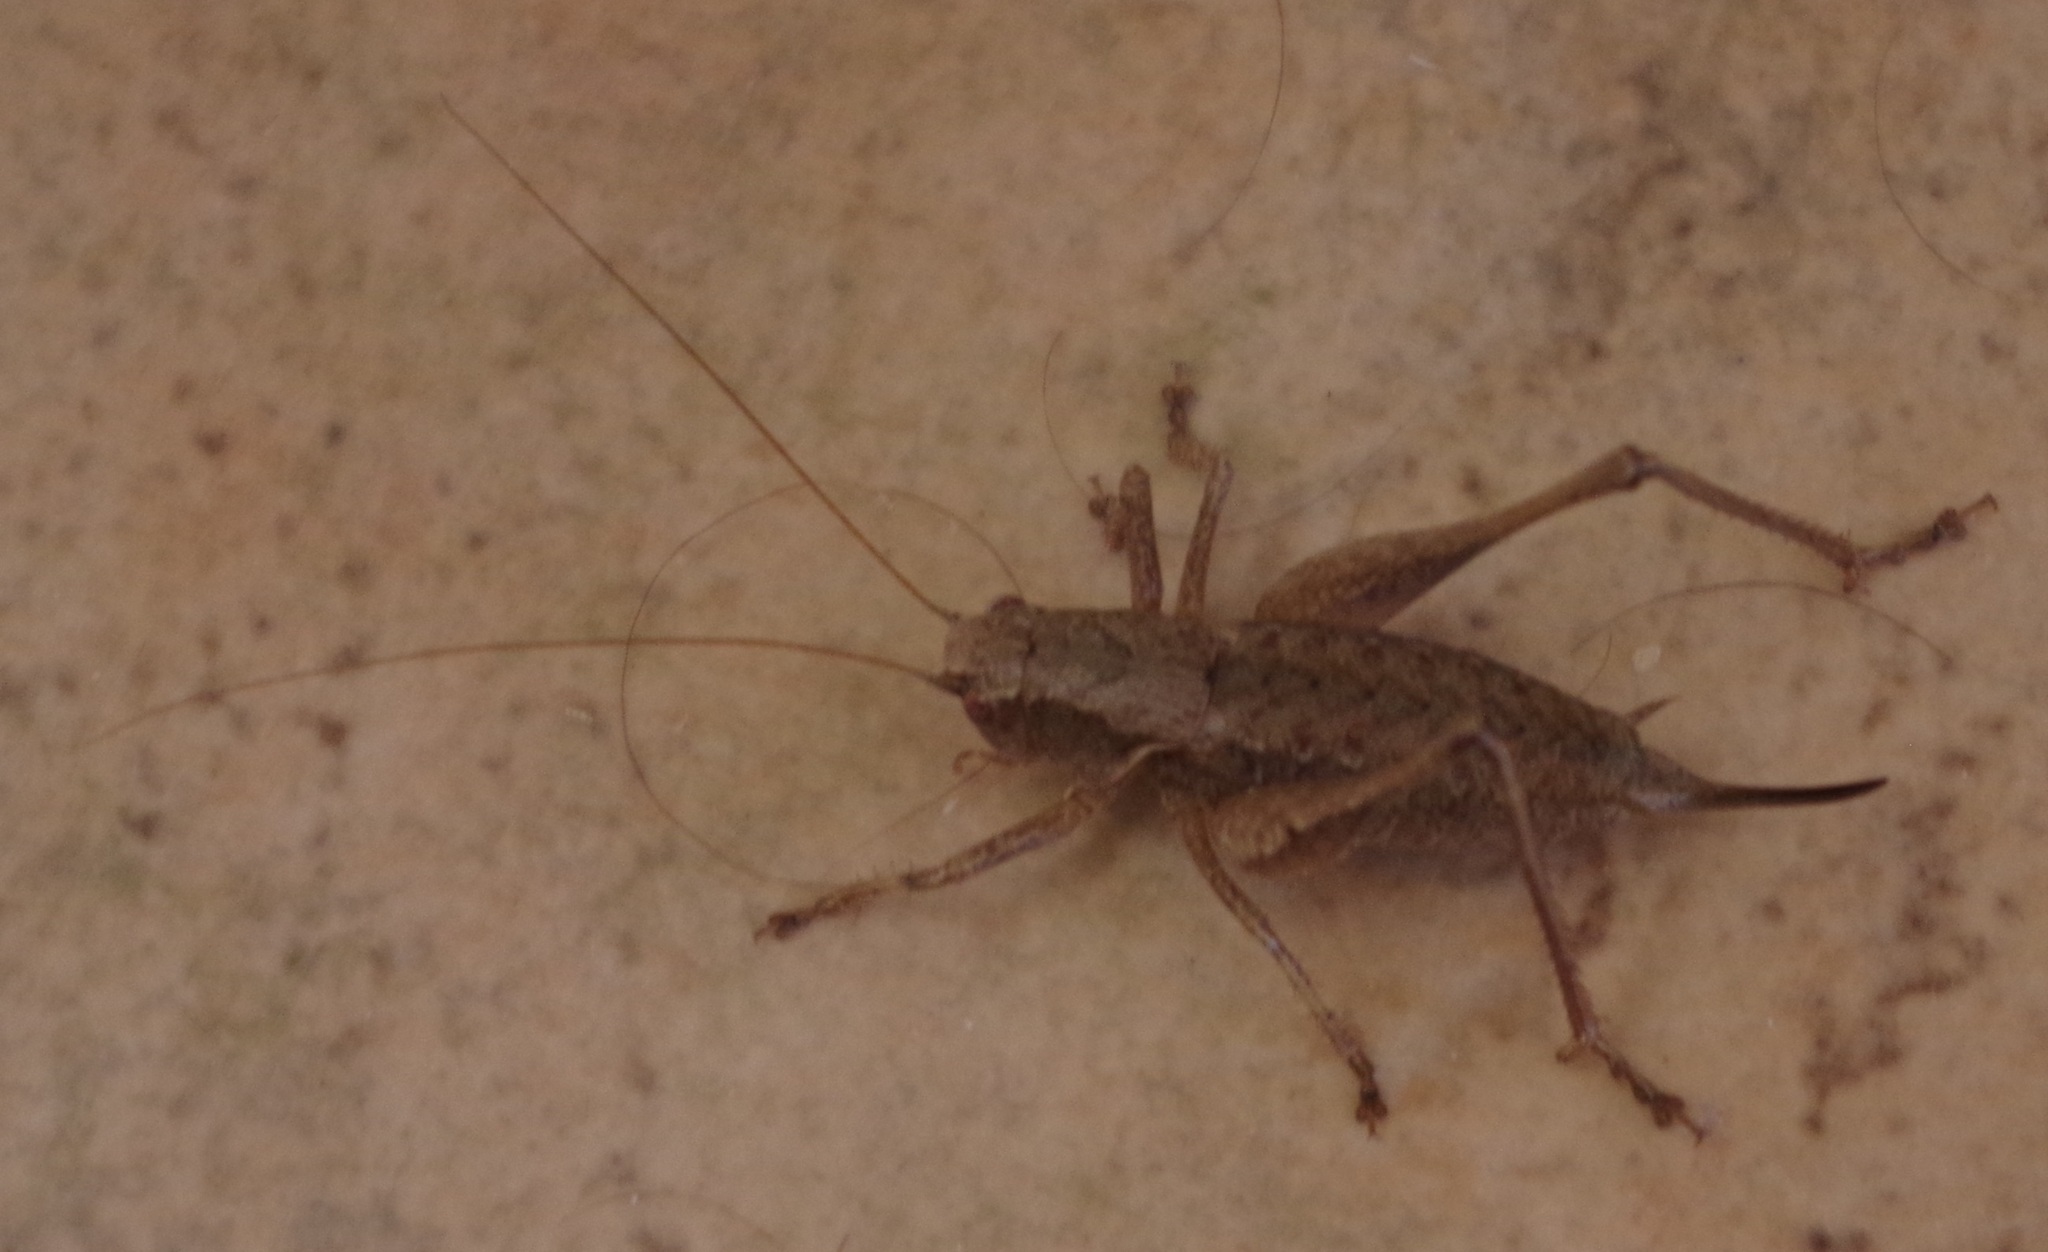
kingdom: Animalia
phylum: Arthropoda
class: Insecta
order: Orthoptera
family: Tettigoniidae
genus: Pholidoptera
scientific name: Pholidoptera griseoaptera
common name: Dark bush-cricket
